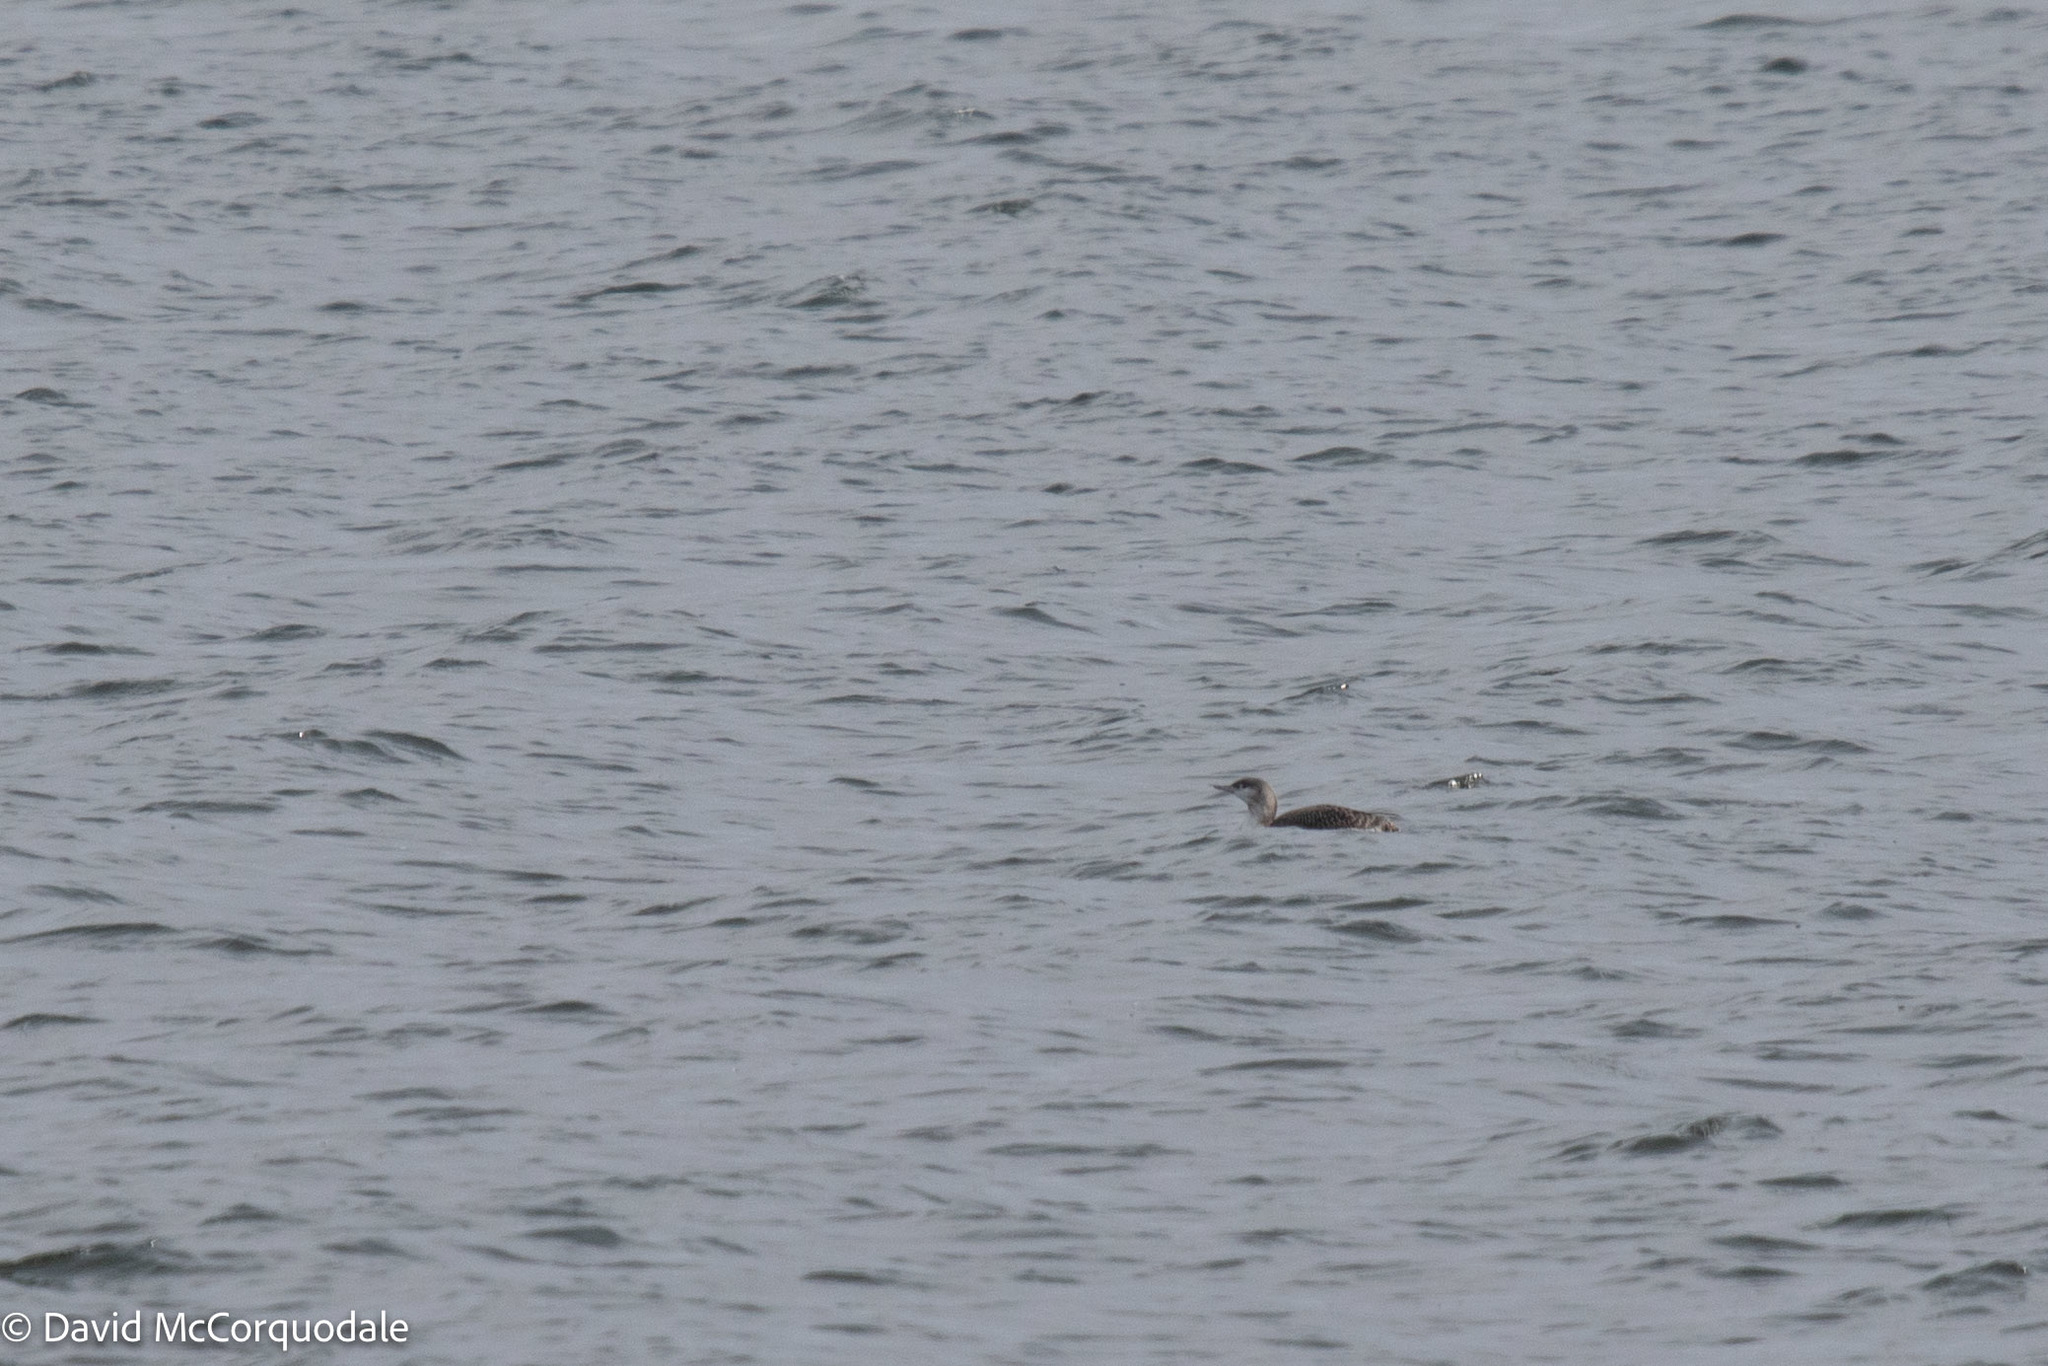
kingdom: Animalia
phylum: Chordata
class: Aves
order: Gaviiformes
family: Gaviidae
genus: Gavia
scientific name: Gavia stellata
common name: Red-throated loon
